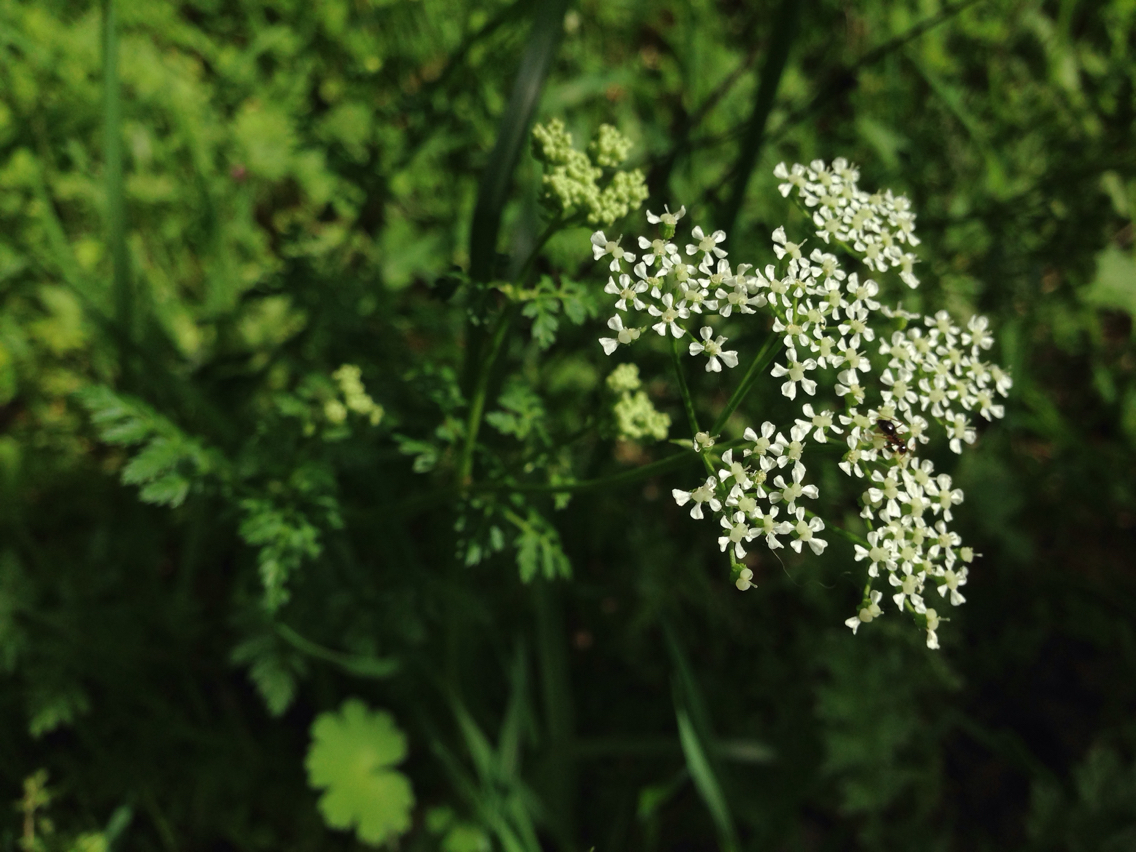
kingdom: Plantae
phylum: Tracheophyta
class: Magnoliopsida
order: Apiales
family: Apiaceae
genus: Conium
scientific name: Conium maculatum
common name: Hemlock
